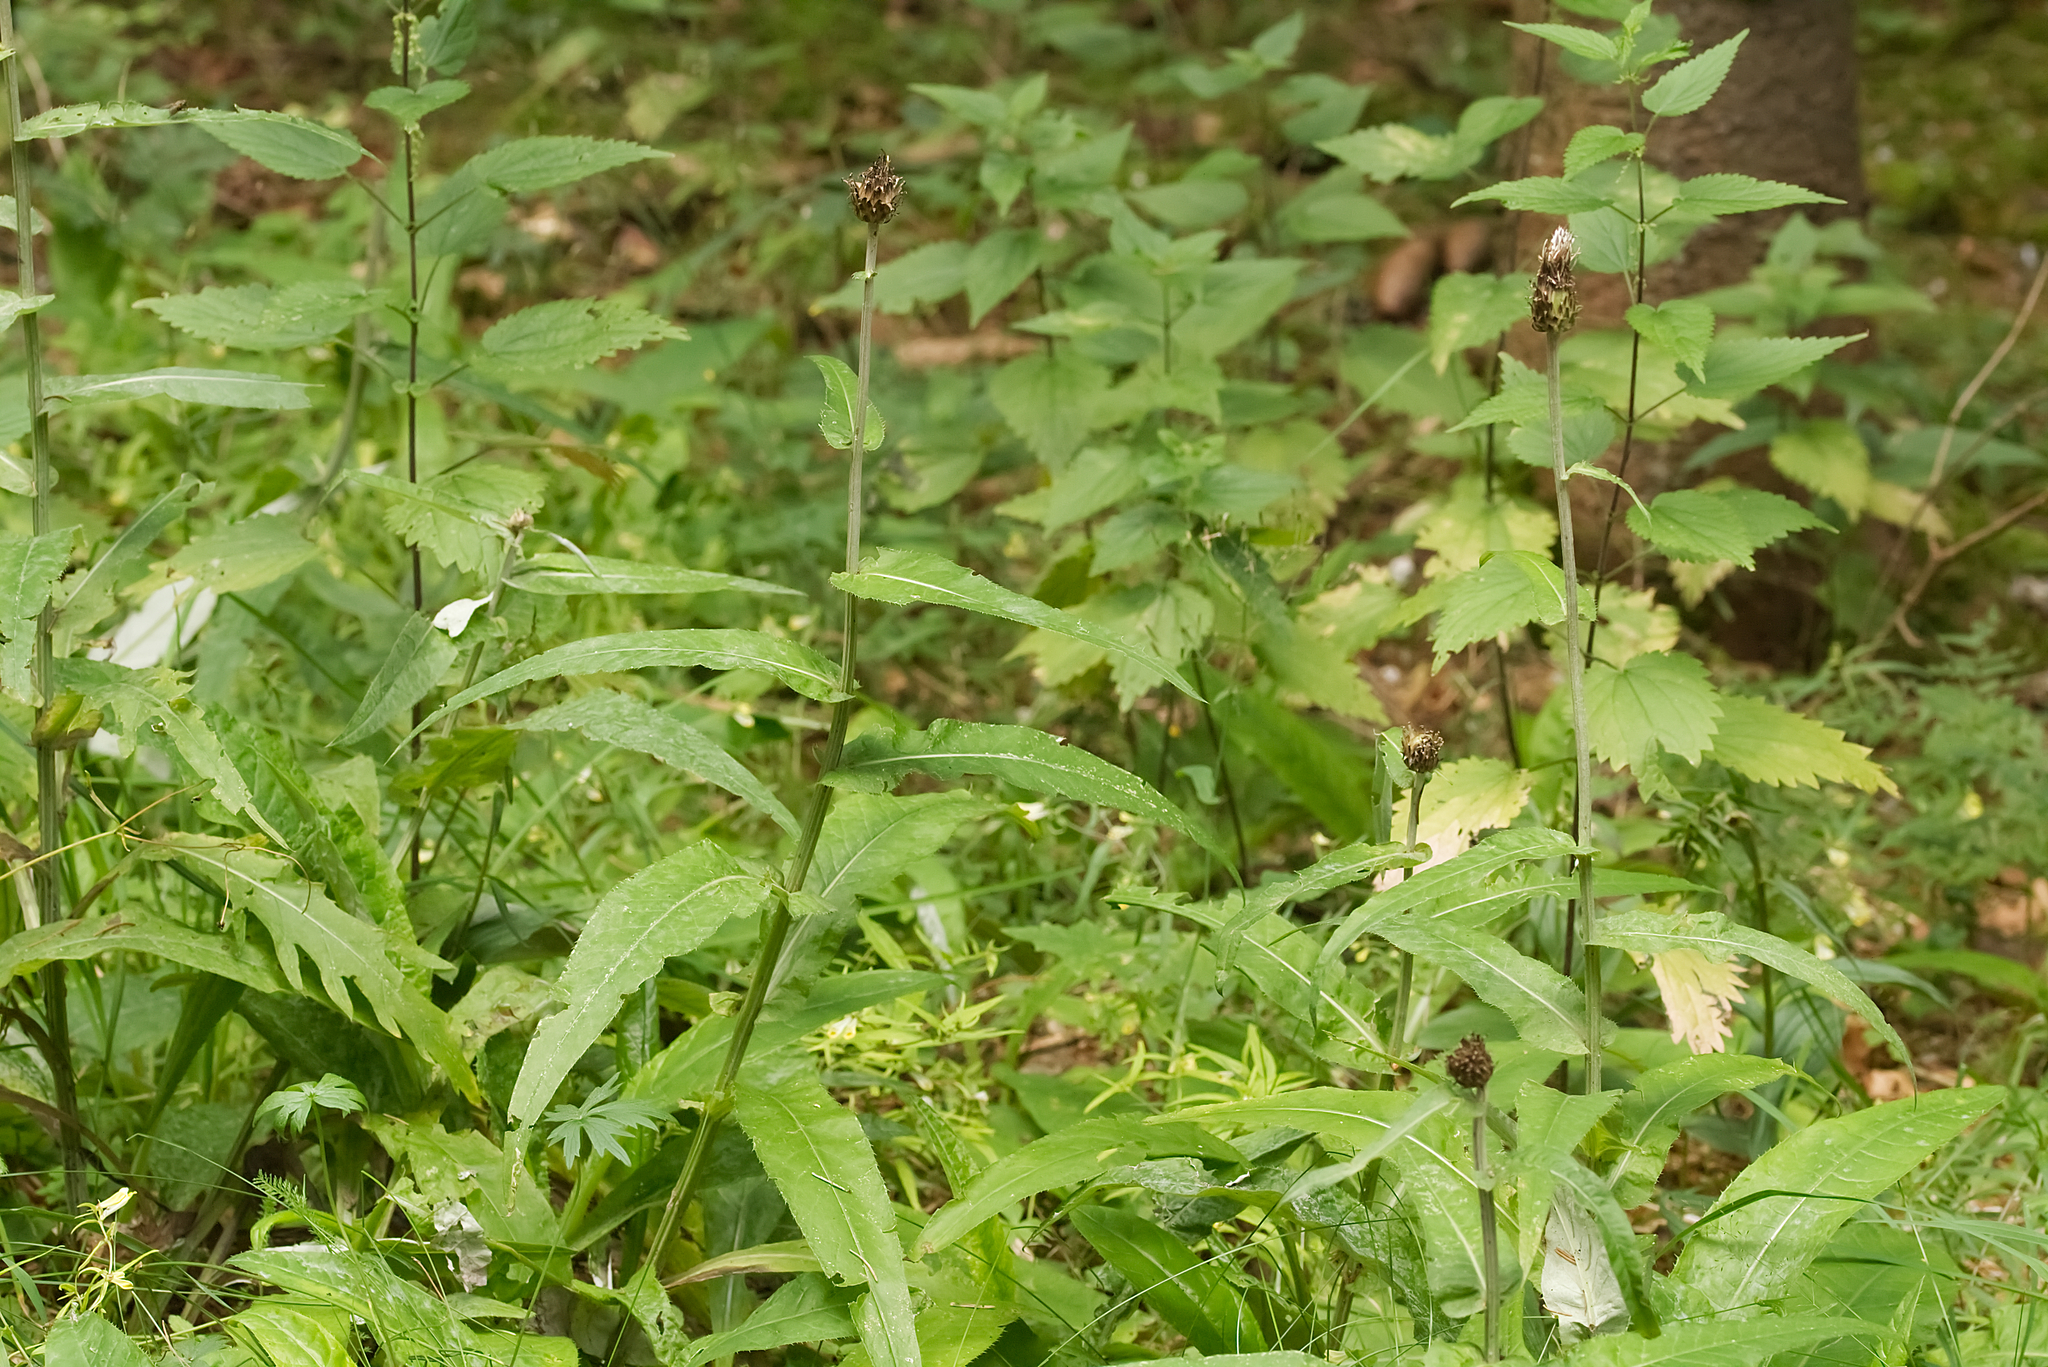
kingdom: Plantae
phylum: Tracheophyta
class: Magnoliopsida
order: Asterales
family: Asteraceae
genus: Cirsium
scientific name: Cirsium heterophyllum
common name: Melancholy thistle
